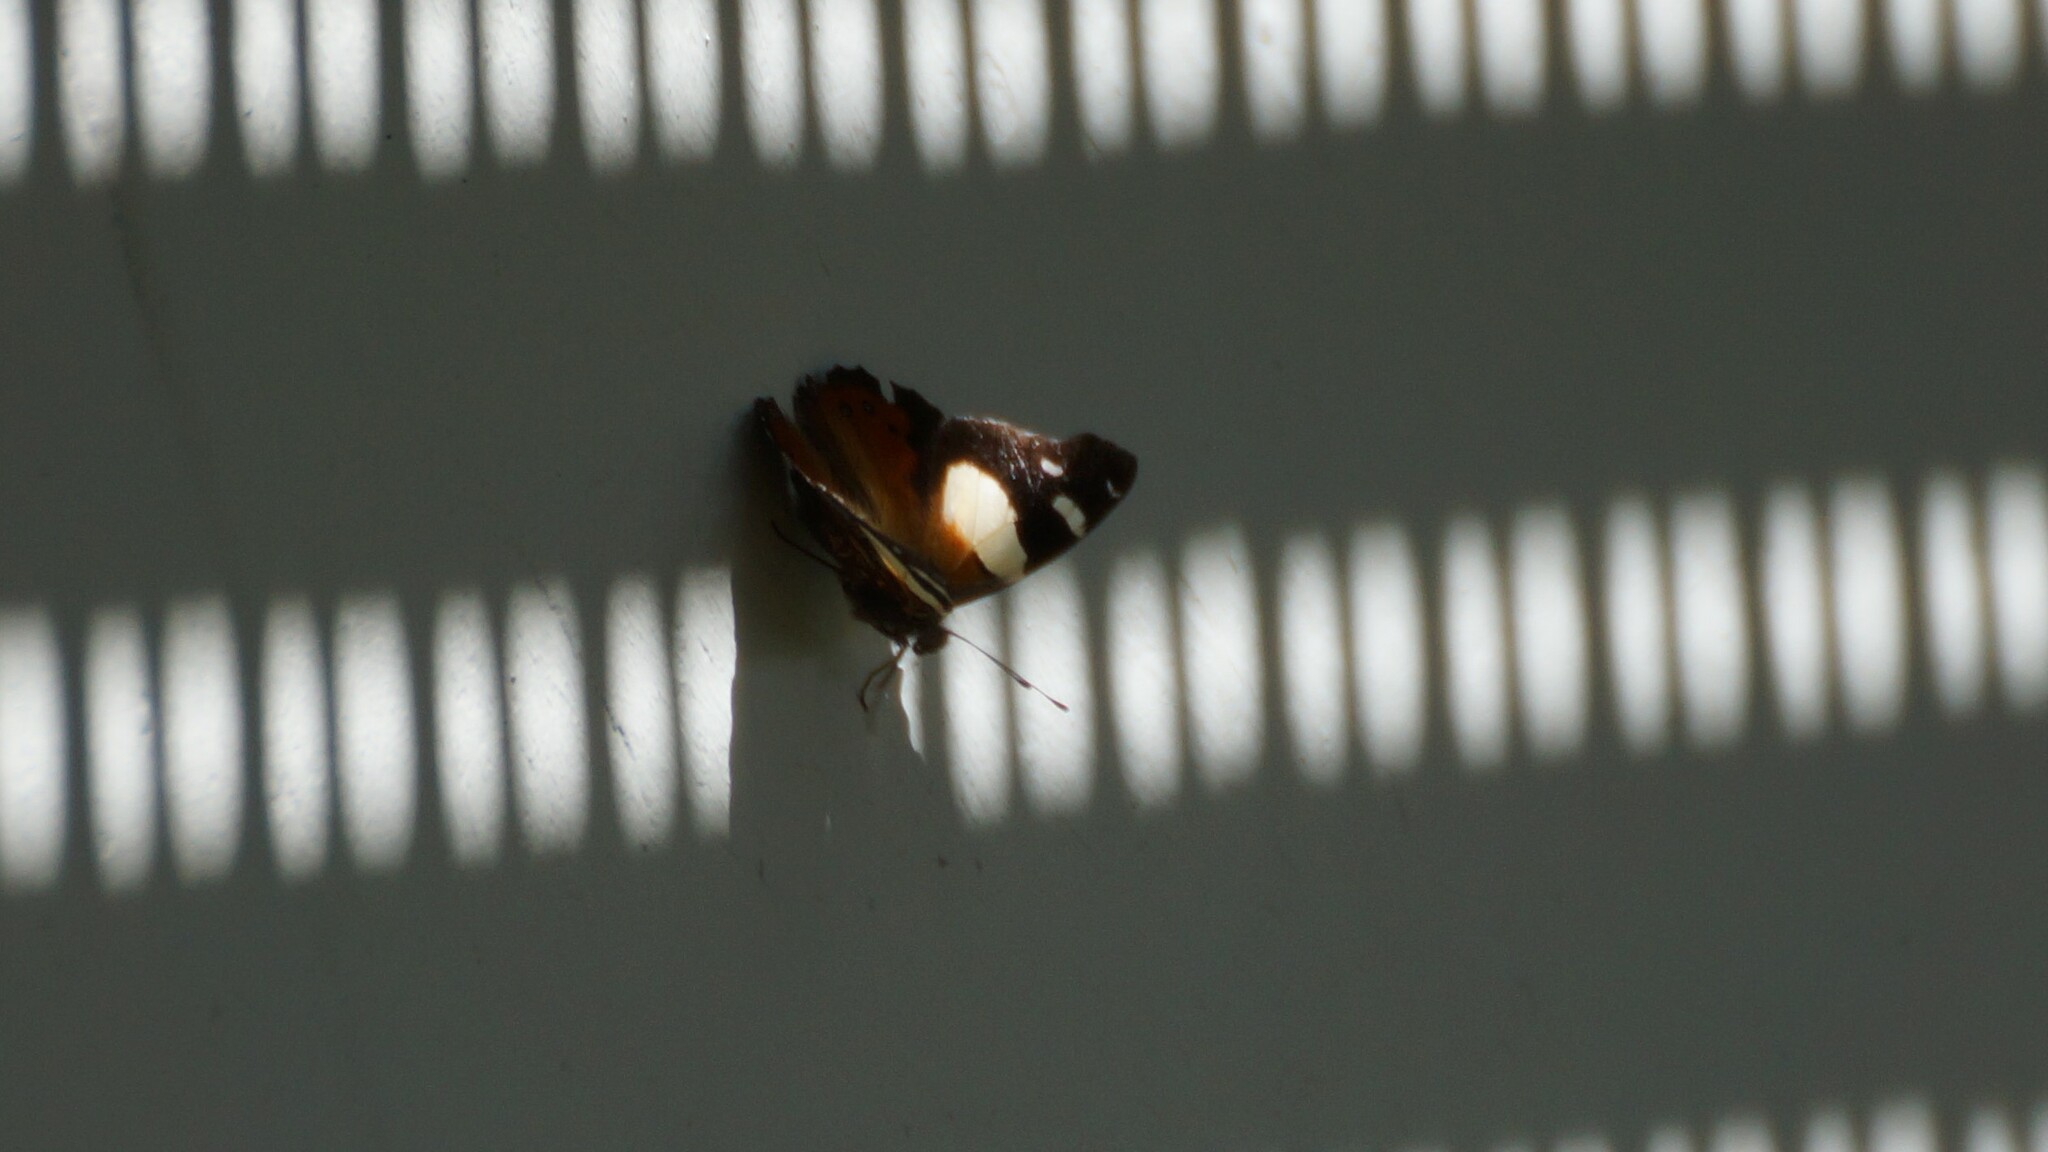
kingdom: Animalia
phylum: Arthropoda
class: Insecta
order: Lepidoptera
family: Nymphalidae
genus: Vanessa
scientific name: Vanessa itea
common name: Yellow admiral
